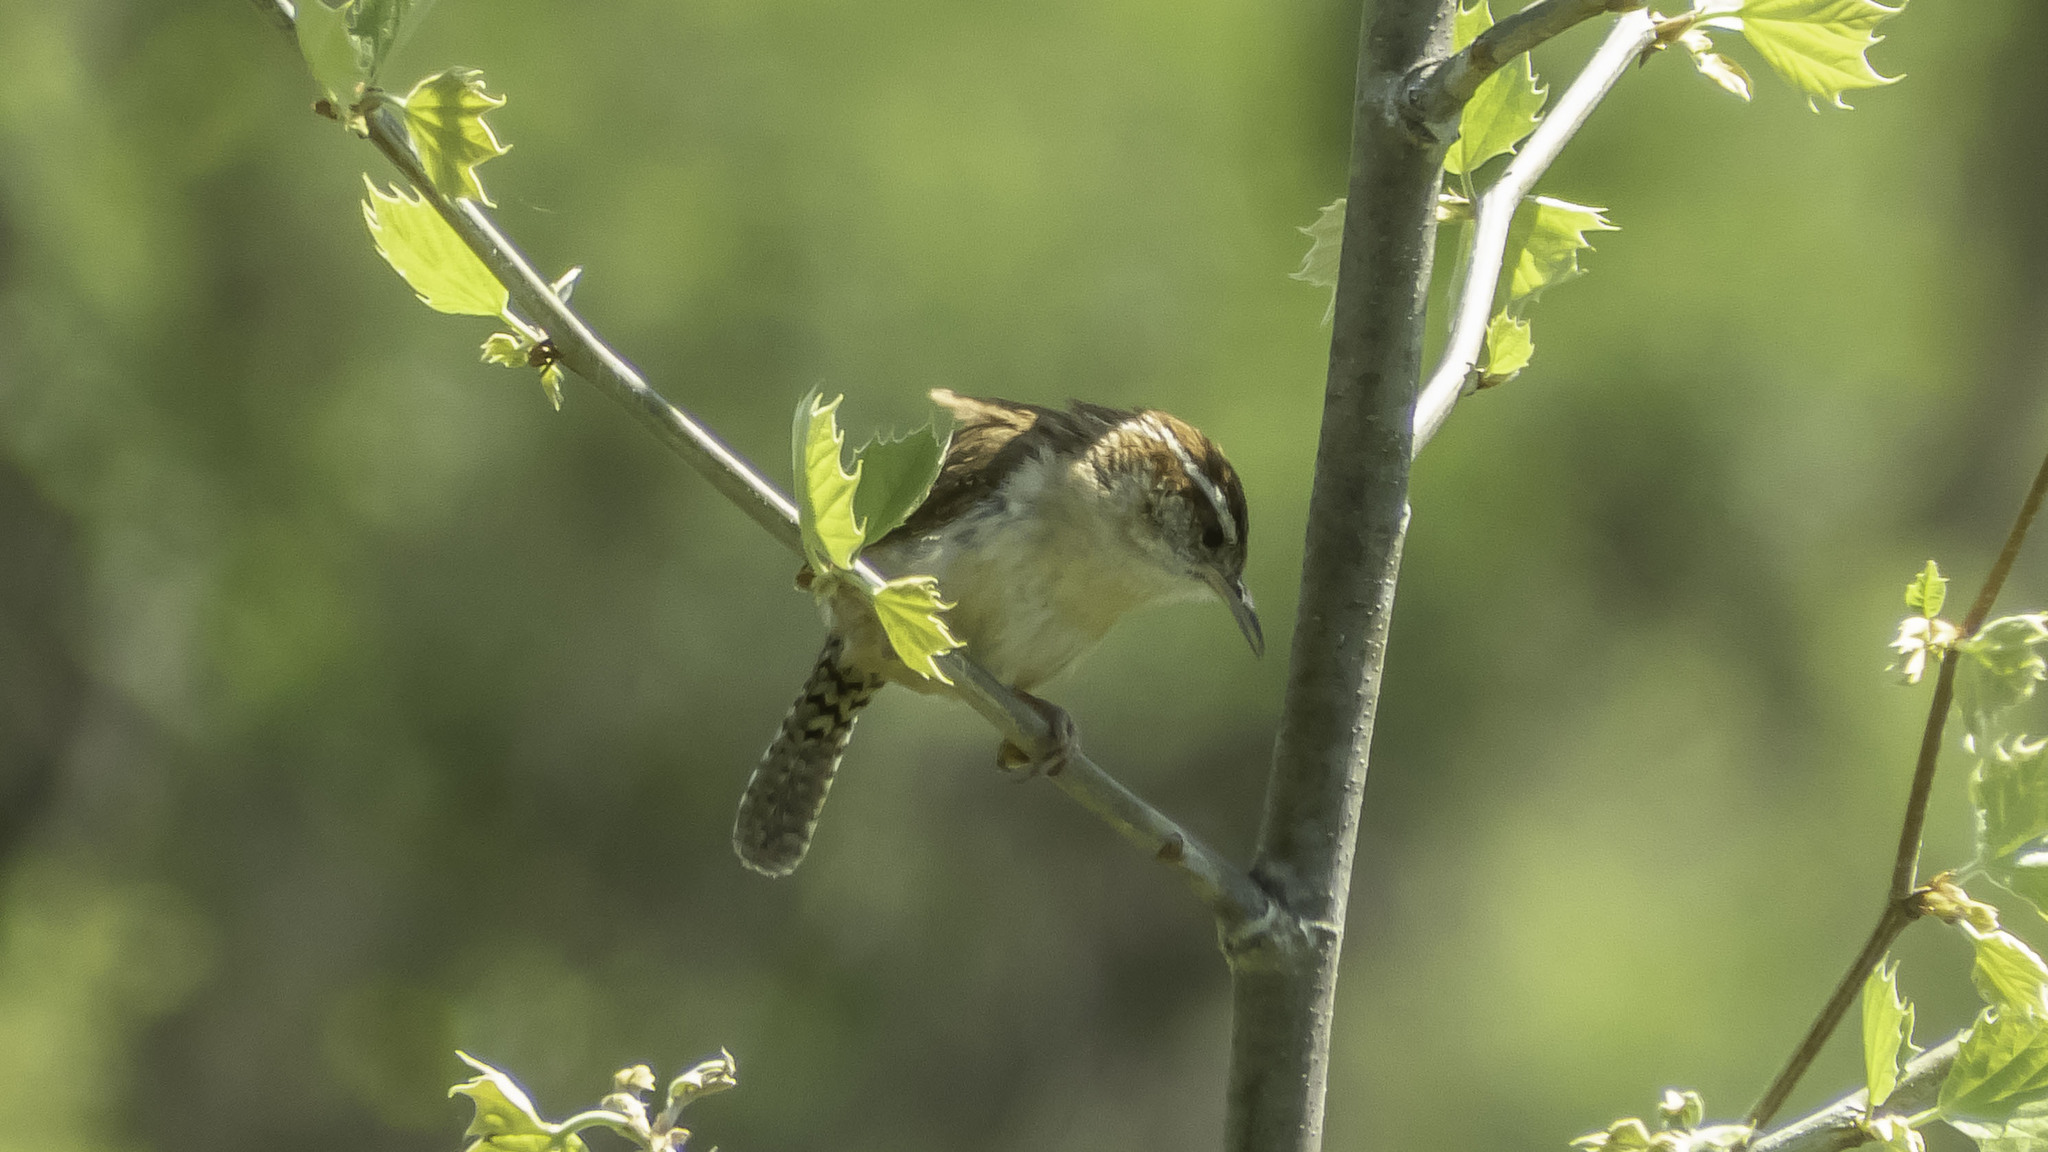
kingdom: Animalia
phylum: Chordata
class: Aves
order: Passeriformes
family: Troglodytidae
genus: Thryothorus
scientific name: Thryothorus ludovicianus
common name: Carolina wren
